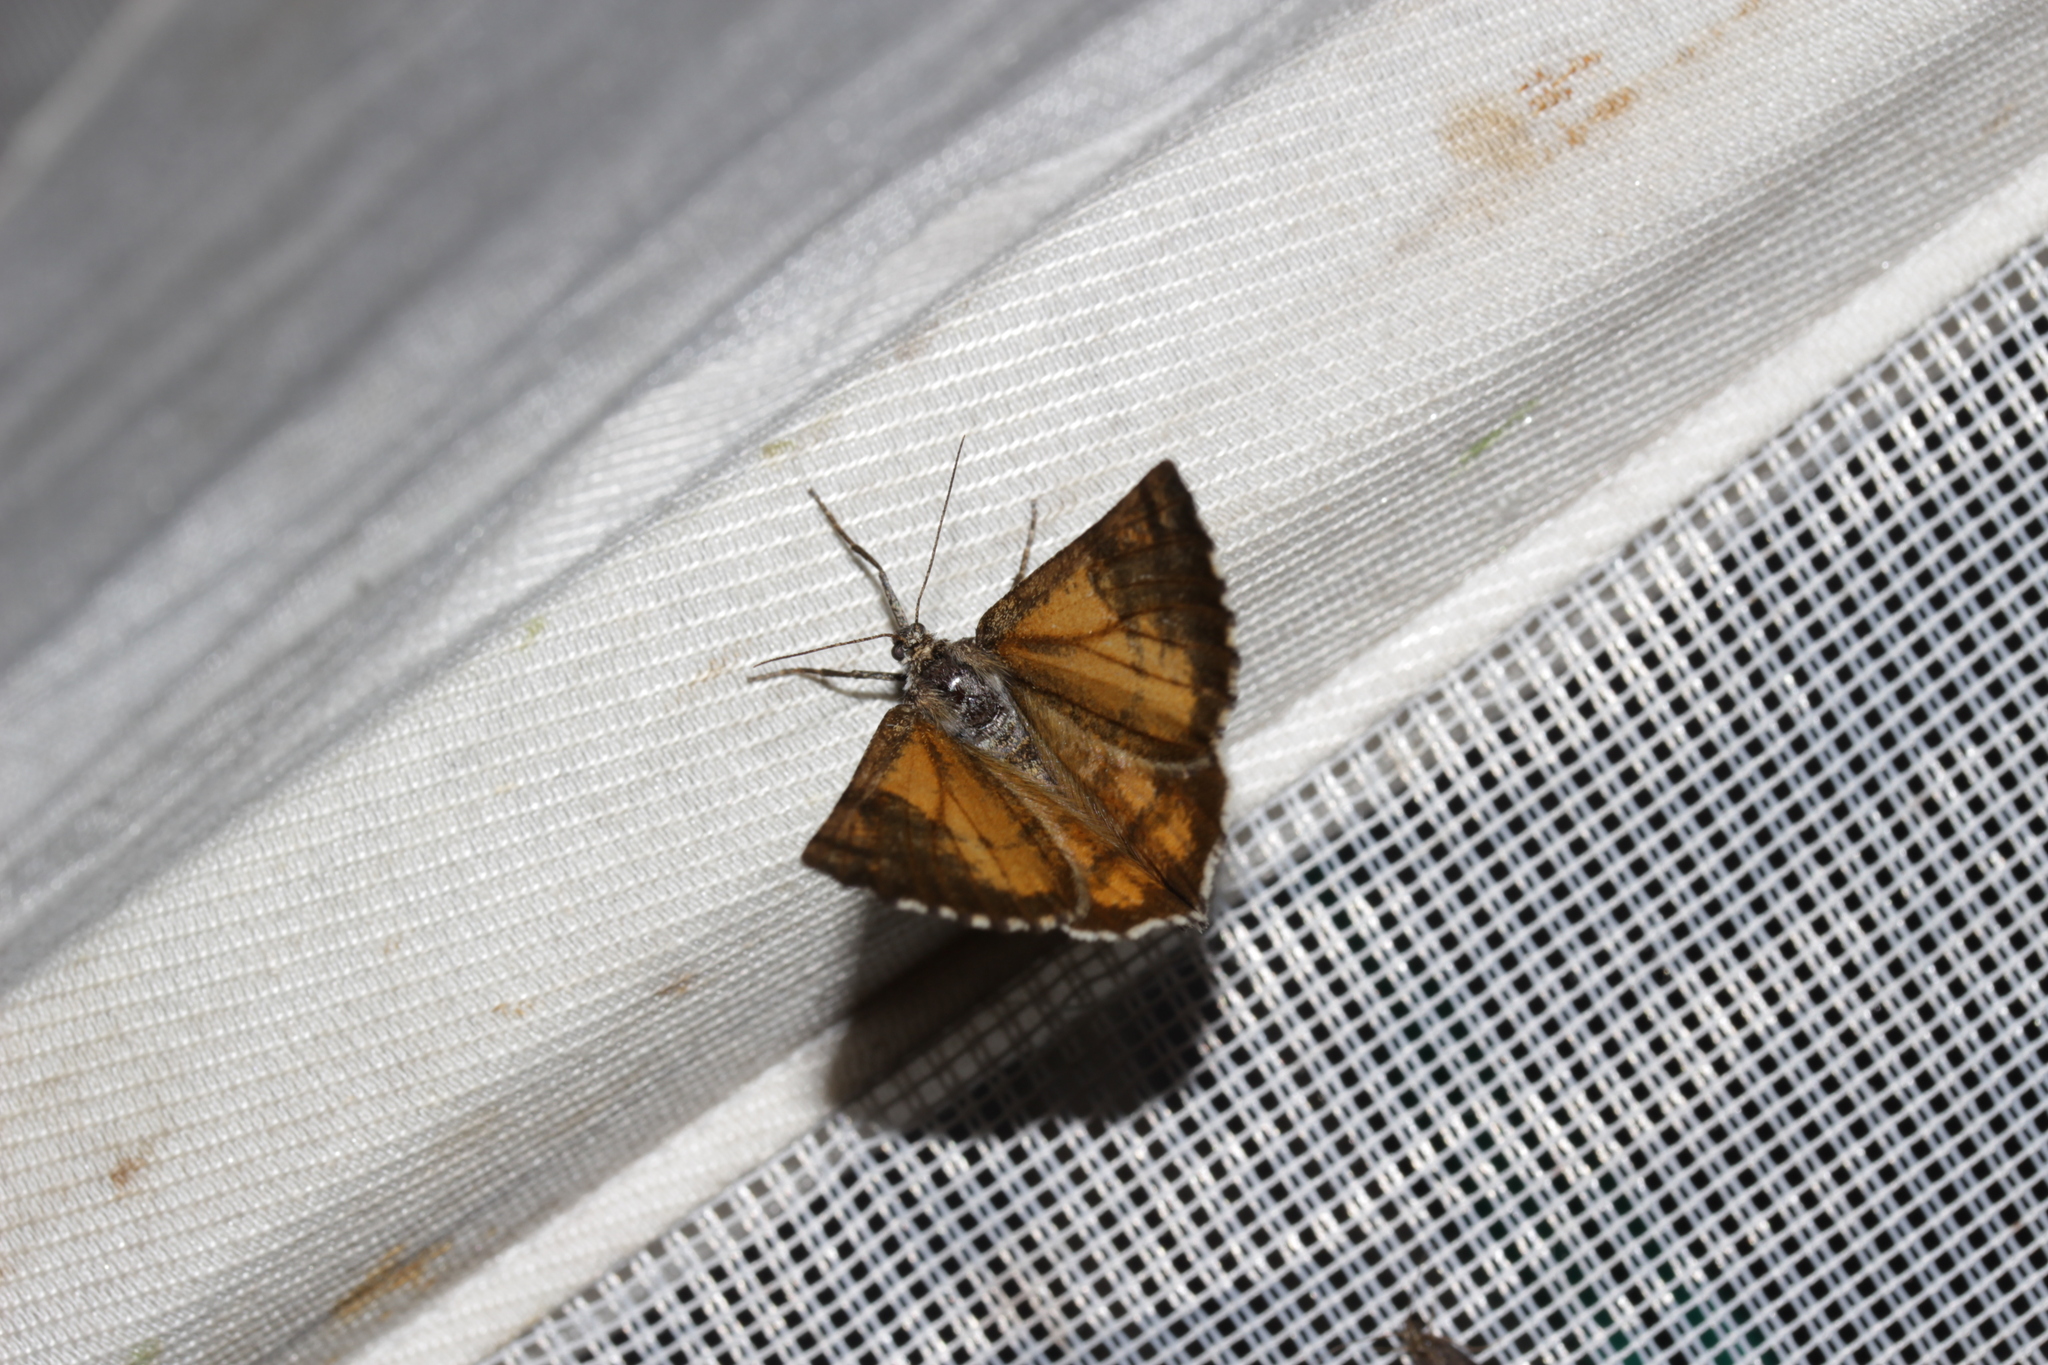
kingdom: Animalia
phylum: Arthropoda
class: Insecta
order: Lepidoptera
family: Geometridae
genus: Bupalus
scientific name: Bupalus piniaria
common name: Bordered white
